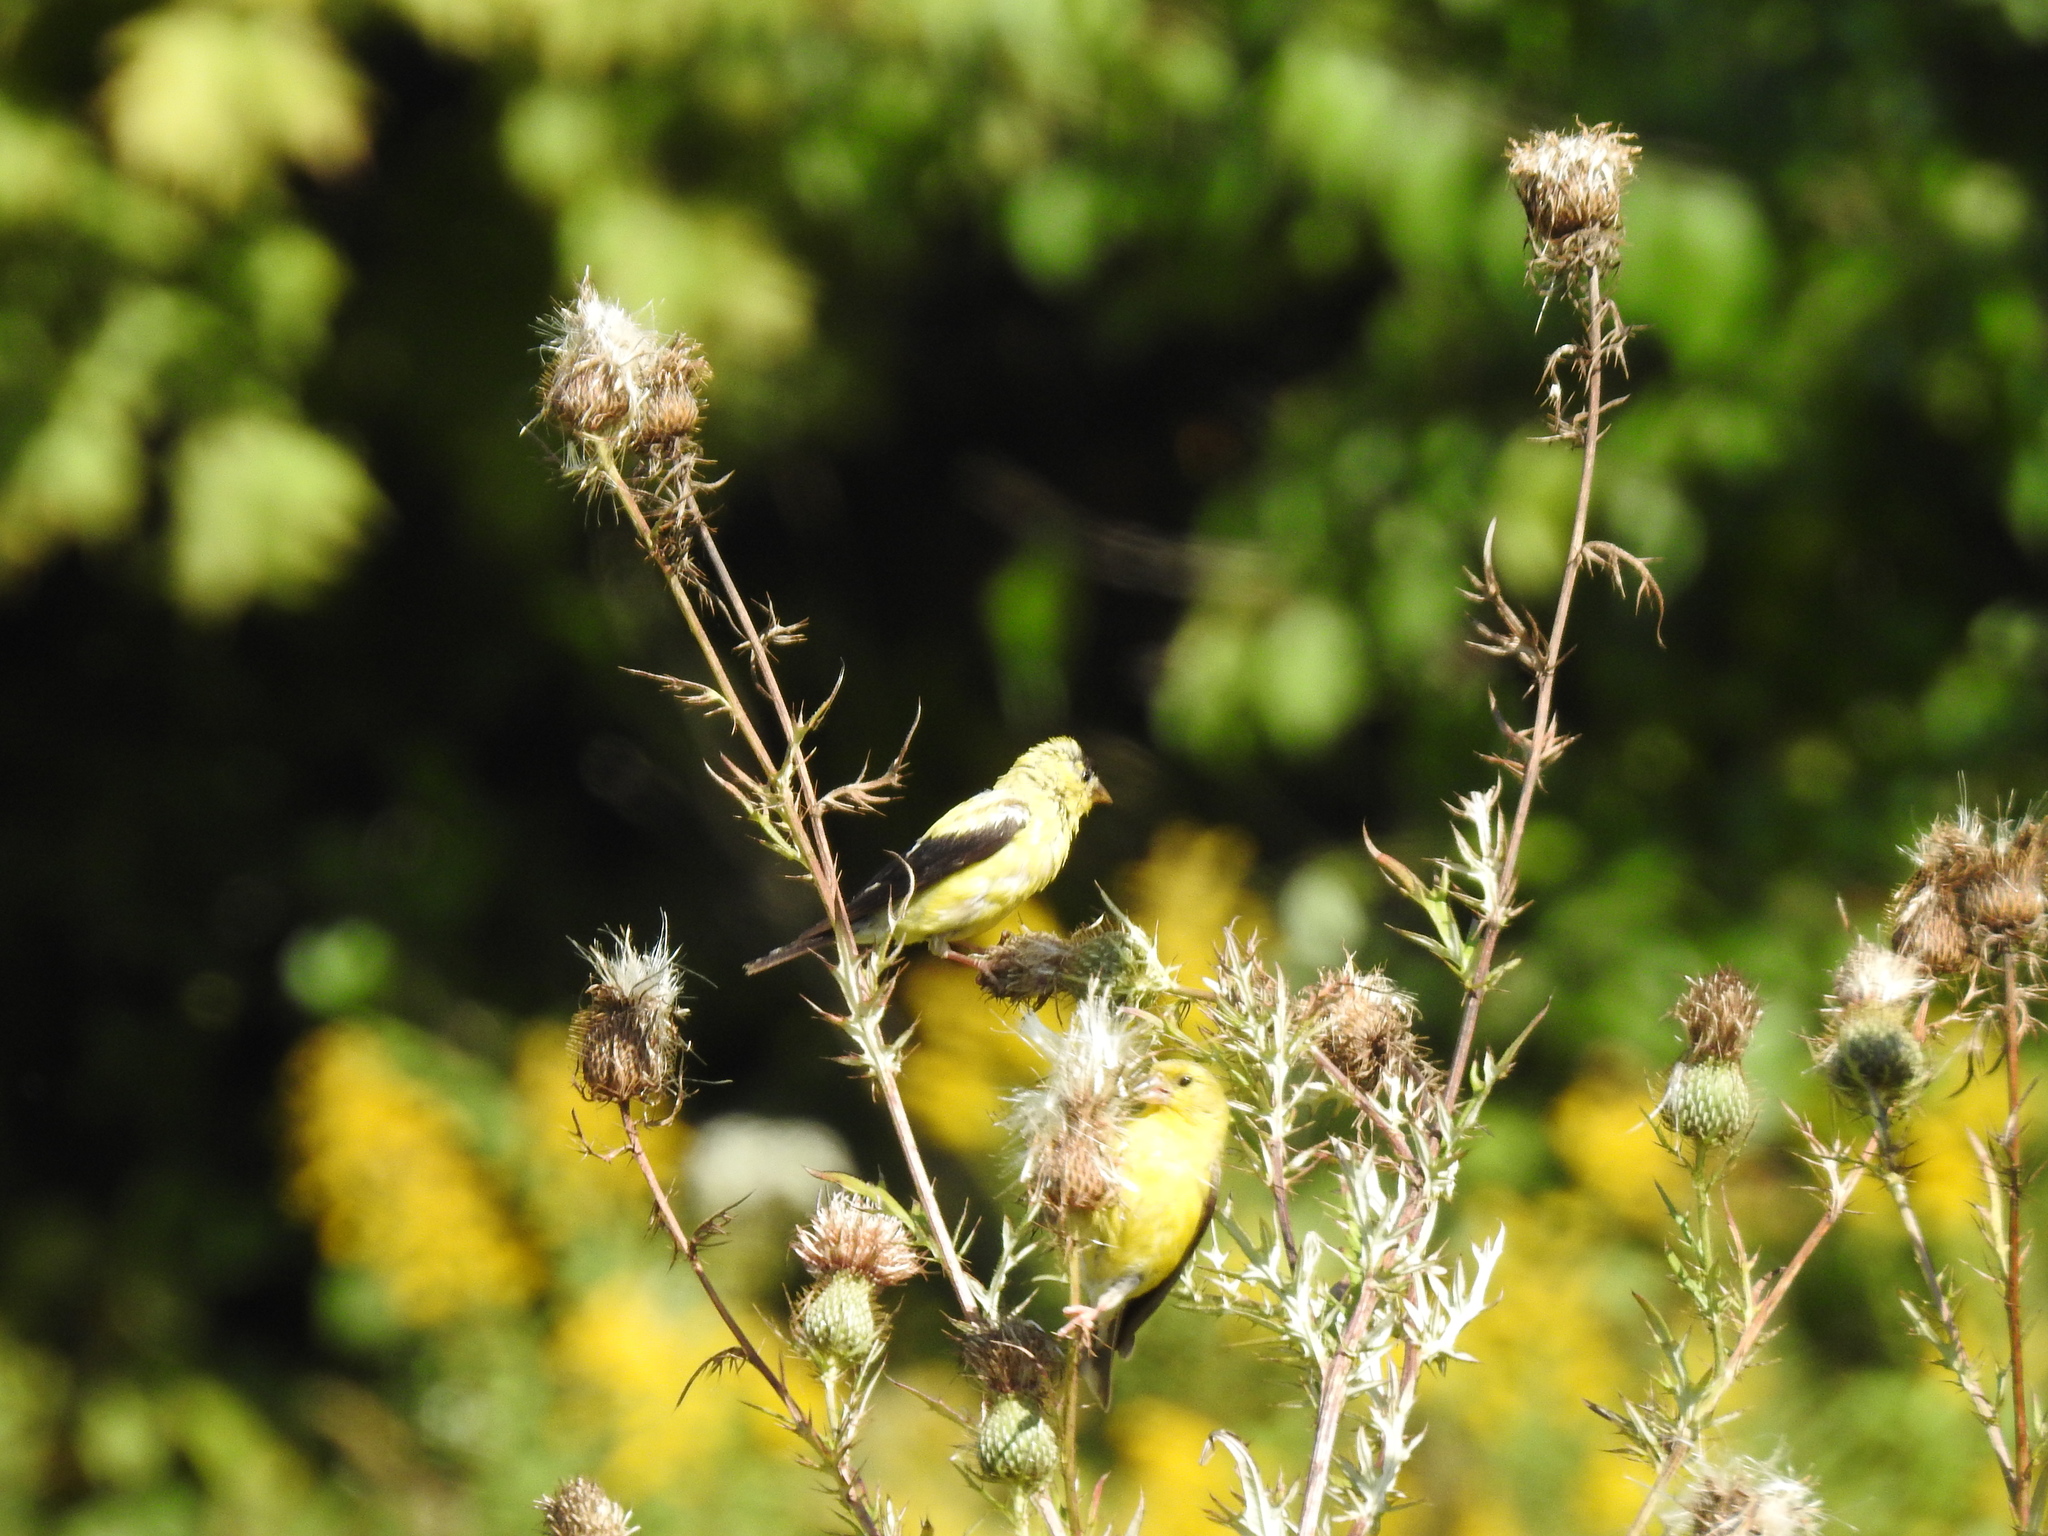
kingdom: Animalia
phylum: Chordata
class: Aves
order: Passeriformes
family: Fringillidae
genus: Spinus
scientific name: Spinus tristis
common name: American goldfinch
